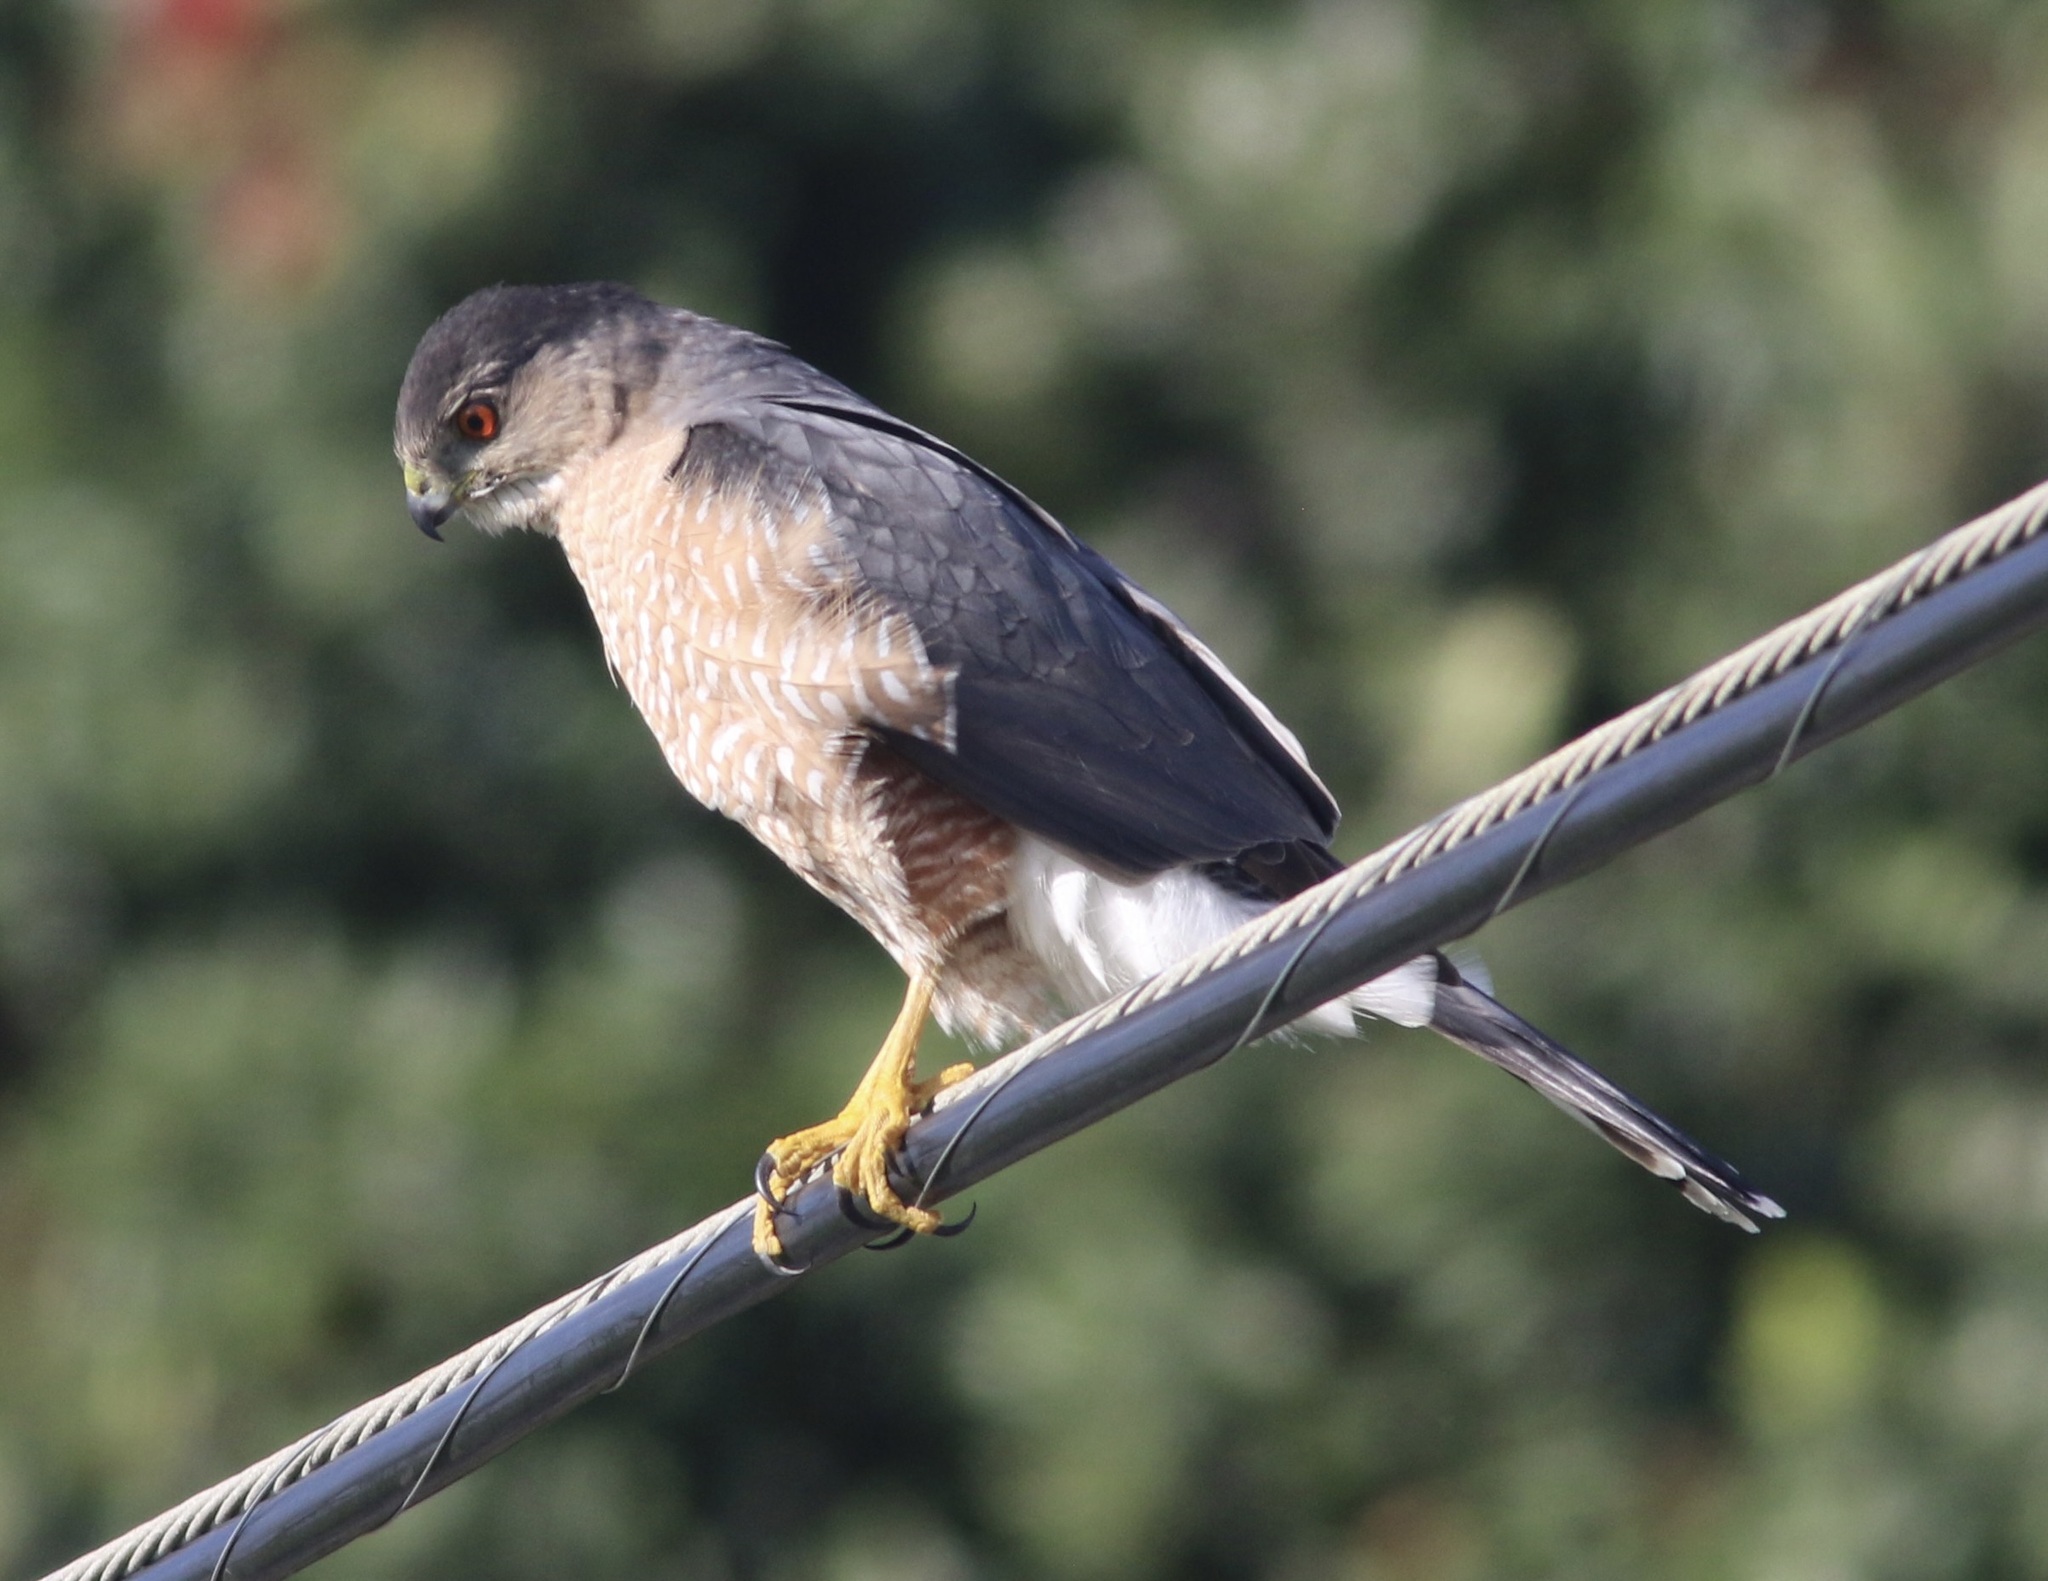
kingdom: Animalia
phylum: Chordata
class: Aves
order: Accipitriformes
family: Accipitridae
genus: Accipiter
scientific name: Accipiter cooperii
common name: Cooper's hawk
